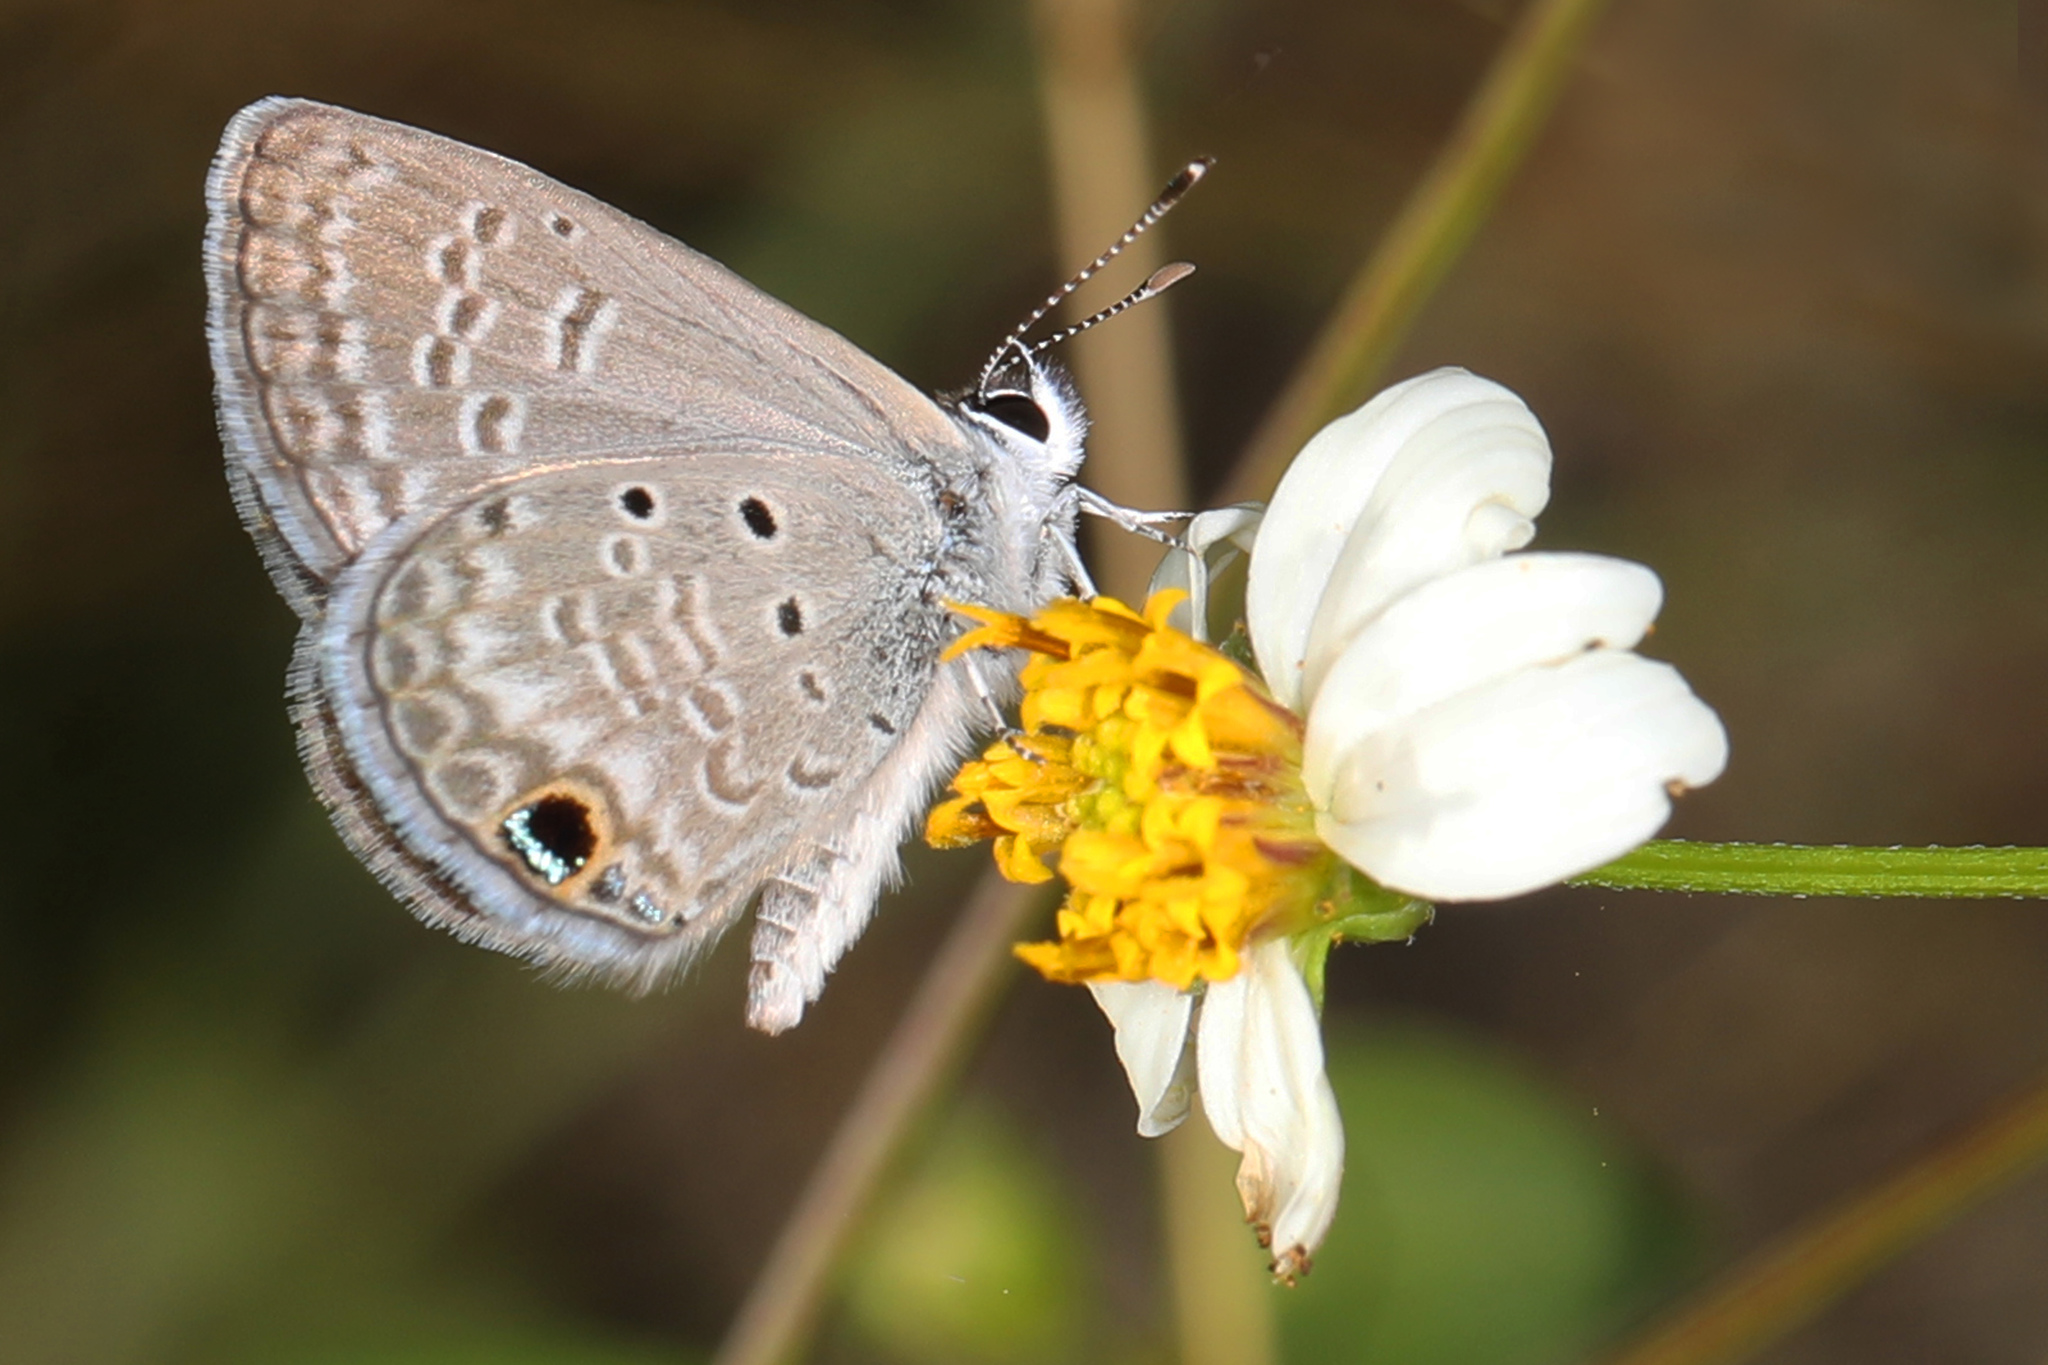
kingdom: Animalia
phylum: Arthropoda
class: Insecta
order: Lepidoptera
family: Lycaenidae
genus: Hemiargus
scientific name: Hemiargus ceraunus
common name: Ceraunus blue
